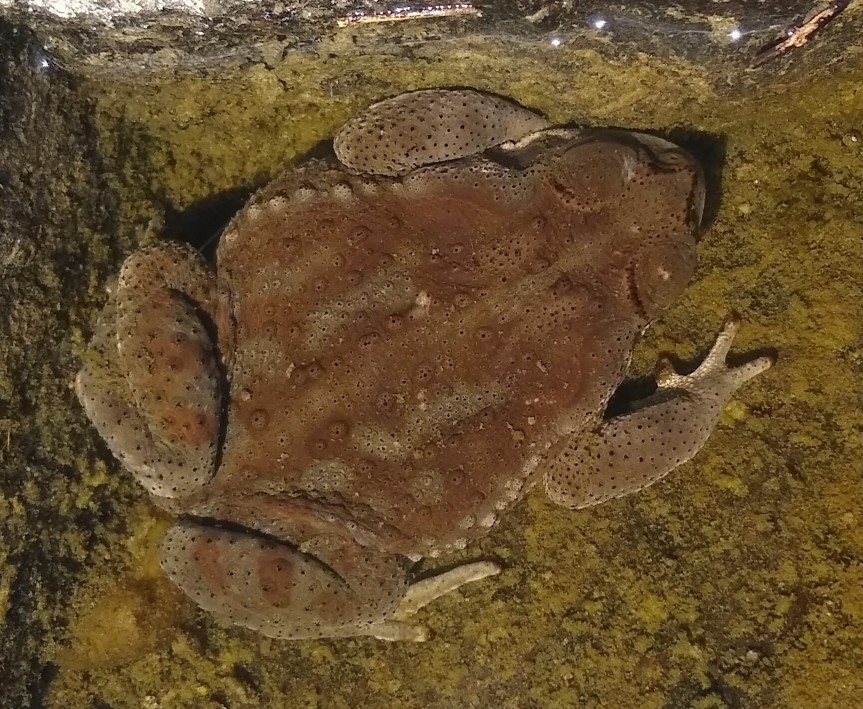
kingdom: Animalia
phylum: Chordata
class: Amphibia
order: Anura
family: Bufonidae
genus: Rhinella
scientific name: Rhinella arenarum
